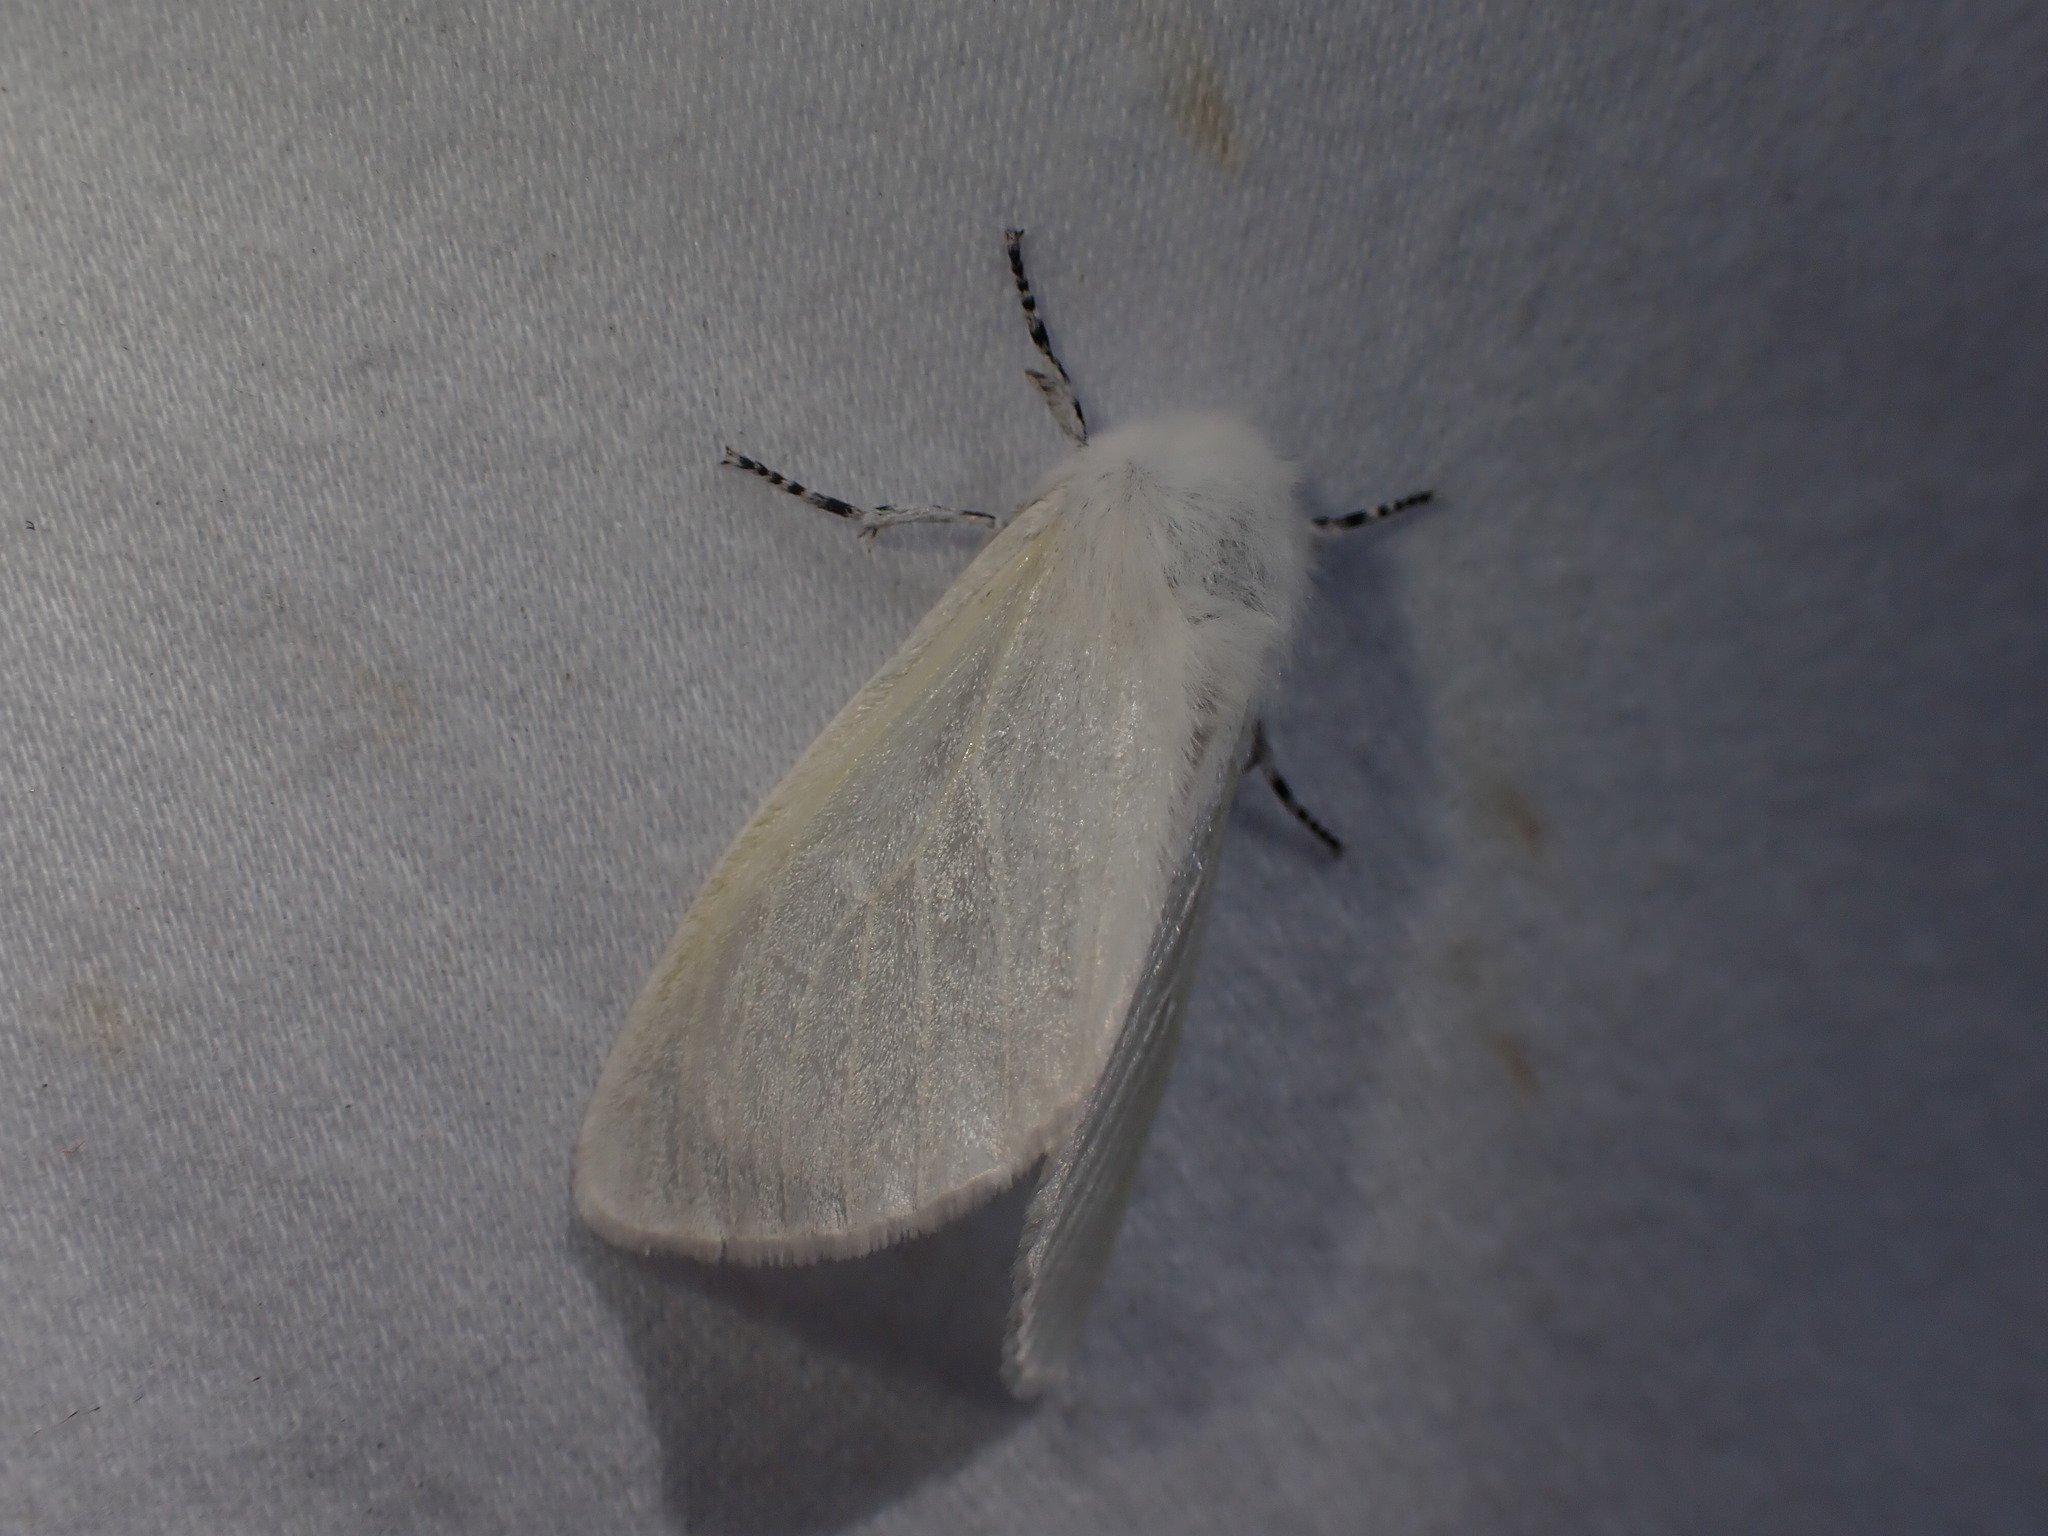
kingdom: Animalia
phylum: Arthropoda
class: Insecta
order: Lepidoptera
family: Erebidae
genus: Leucoma
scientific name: Leucoma salicis
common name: White satin moth
